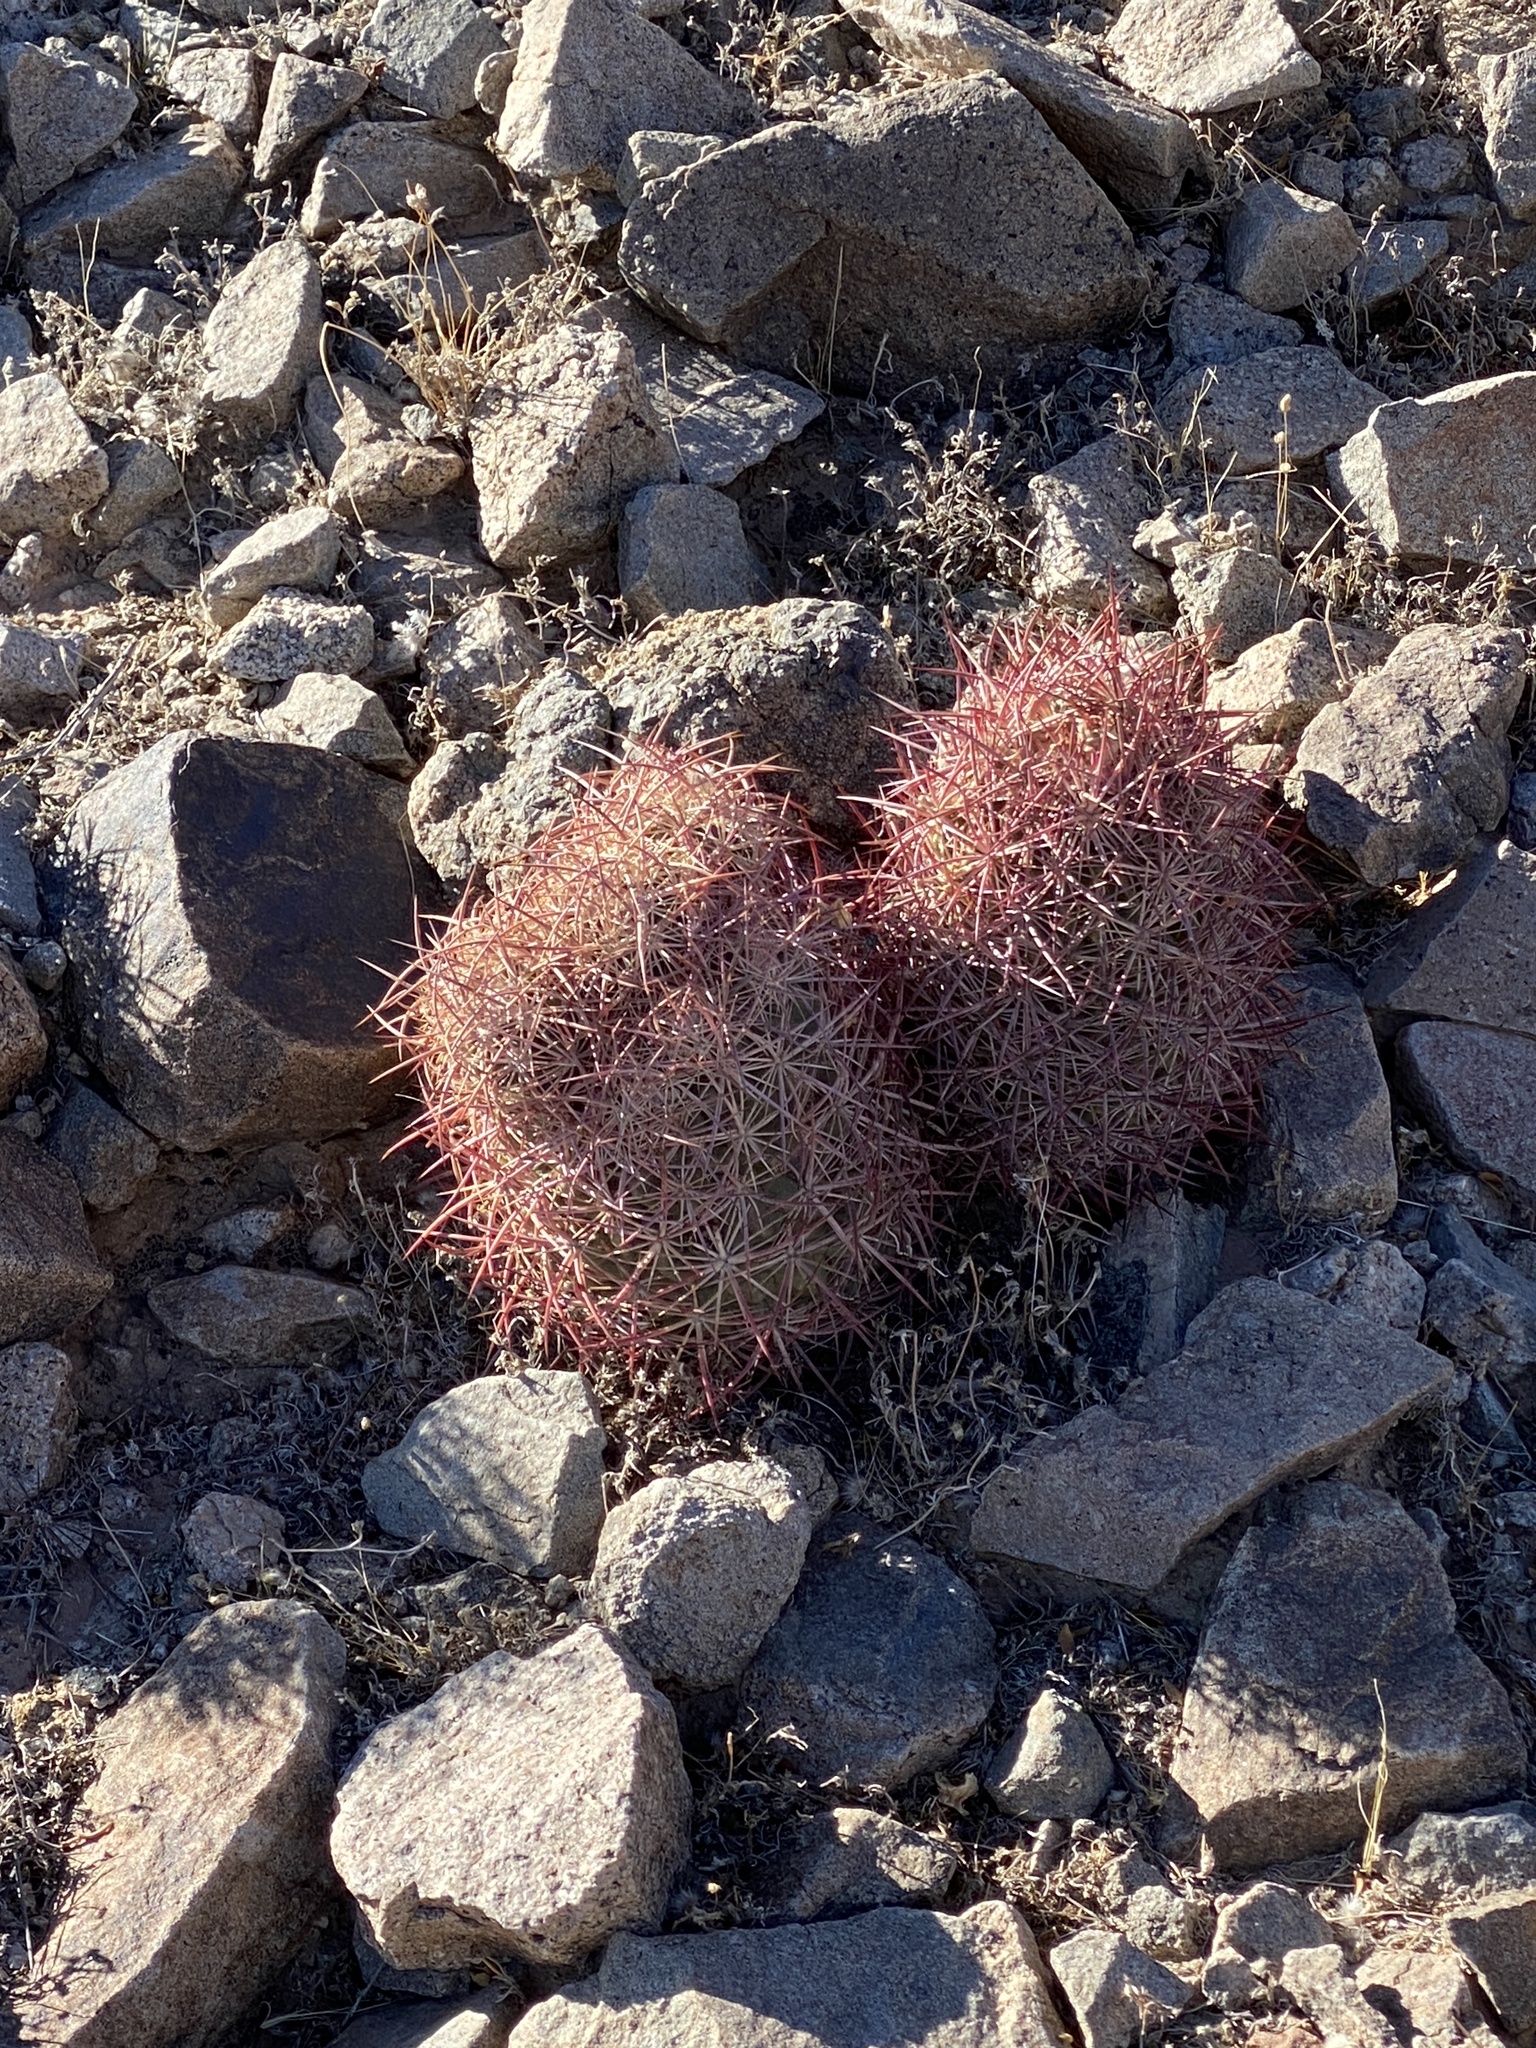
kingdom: Plantae
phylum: Tracheophyta
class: Magnoliopsida
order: Caryophyllales
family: Cactaceae
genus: Sclerocactus
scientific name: Sclerocactus johnsonii
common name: Eight-spine fishhook cactus
